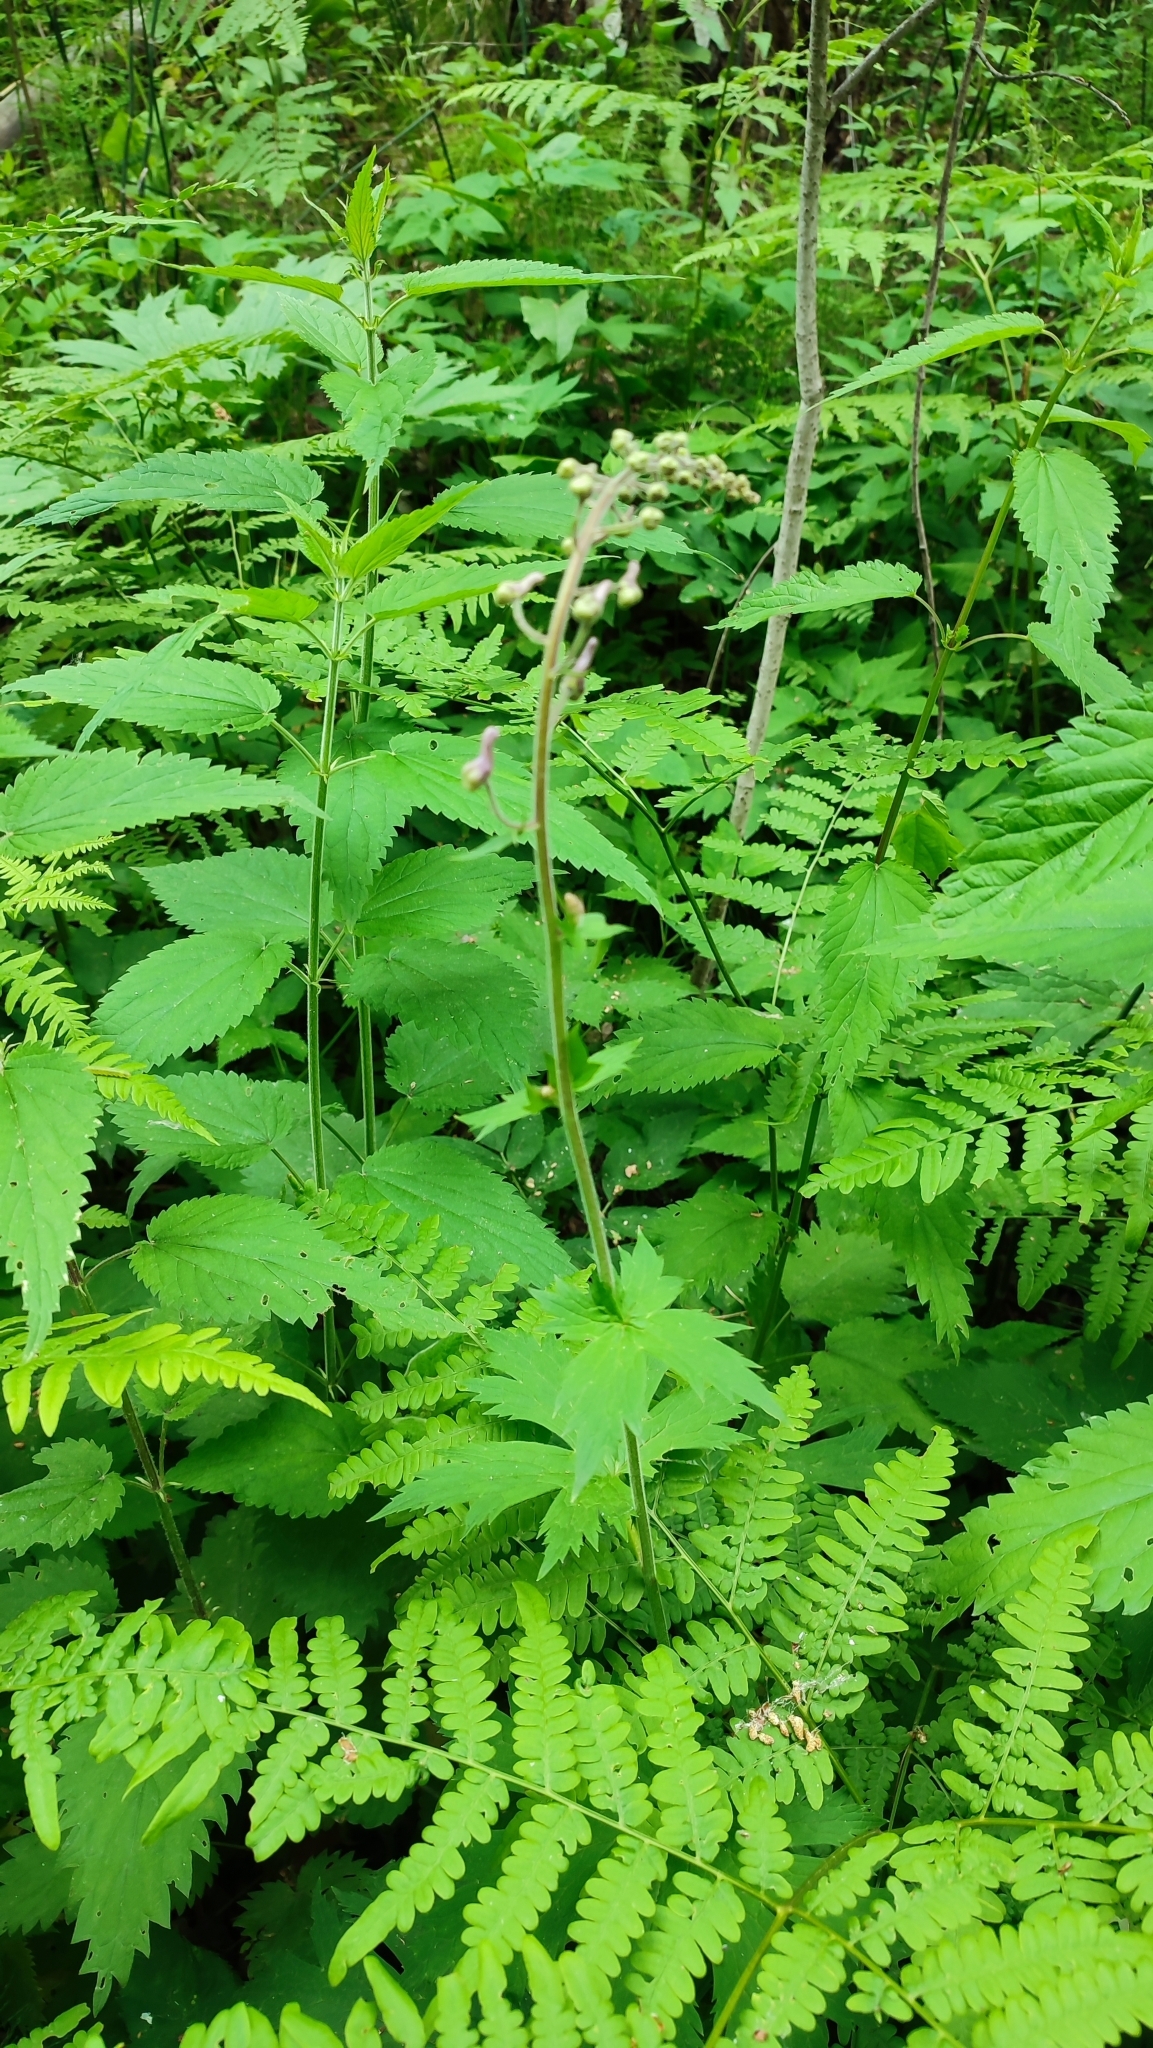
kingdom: Plantae
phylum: Tracheophyta
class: Magnoliopsida
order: Ranunculales
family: Ranunculaceae
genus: Aconitum
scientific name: Aconitum septentrionale
